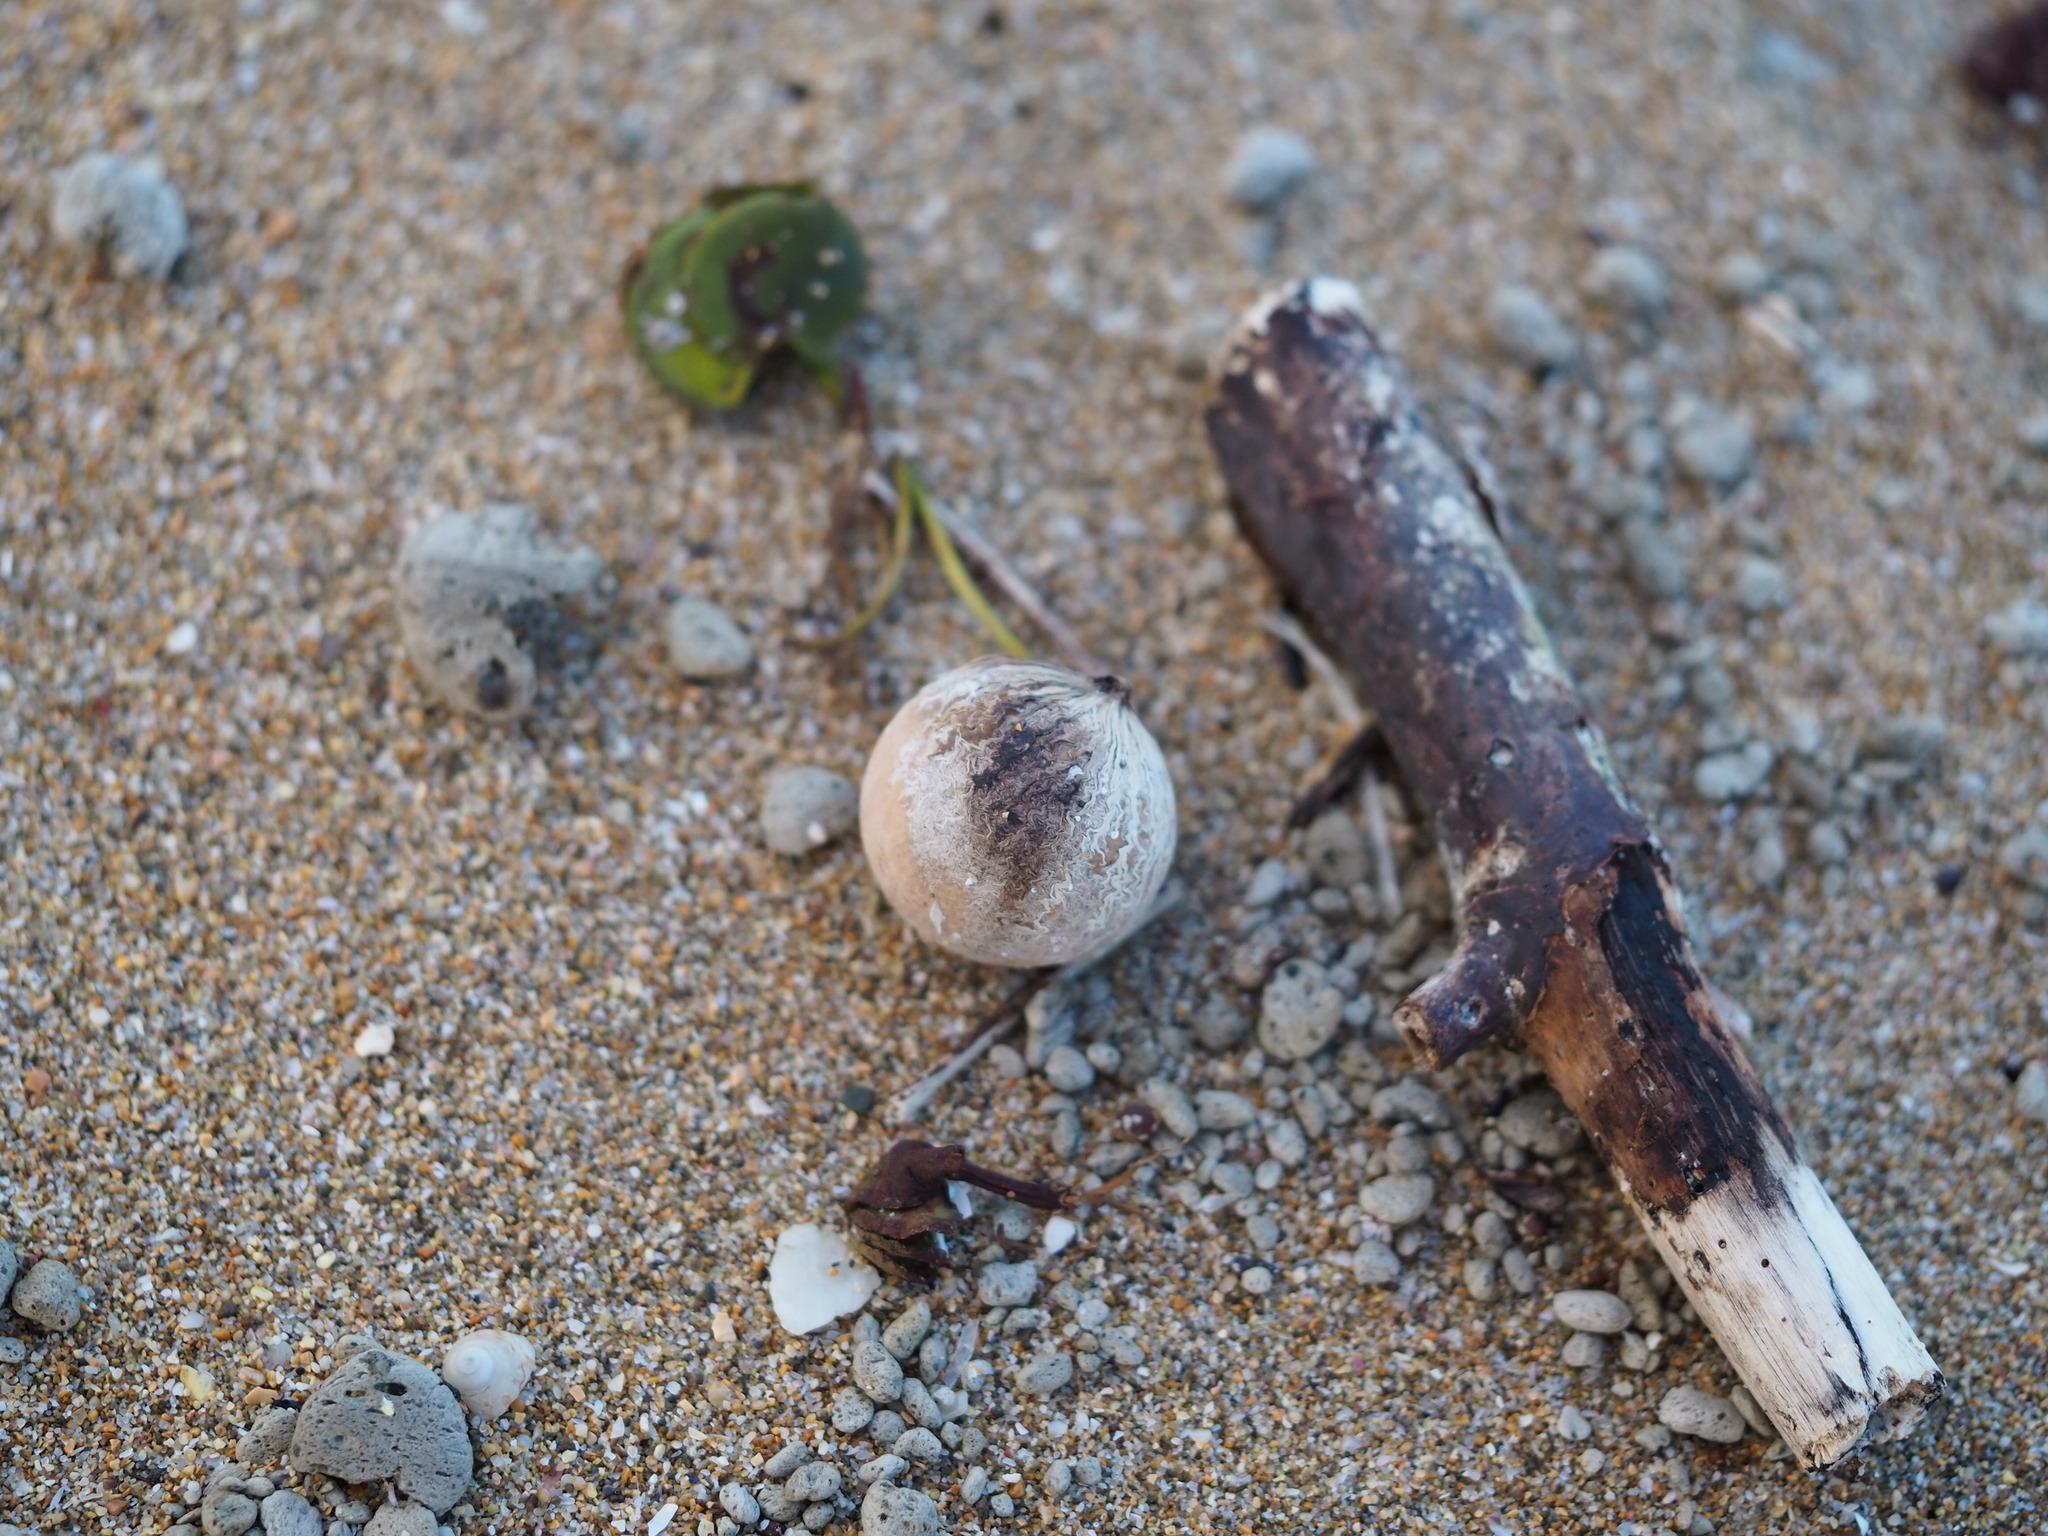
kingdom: Plantae
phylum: Tracheophyta
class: Magnoliopsida
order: Malpighiales
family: Calophyllaceae
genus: Calophyllum
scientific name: Calophyllum inophyllum
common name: Alexandrian laurel
